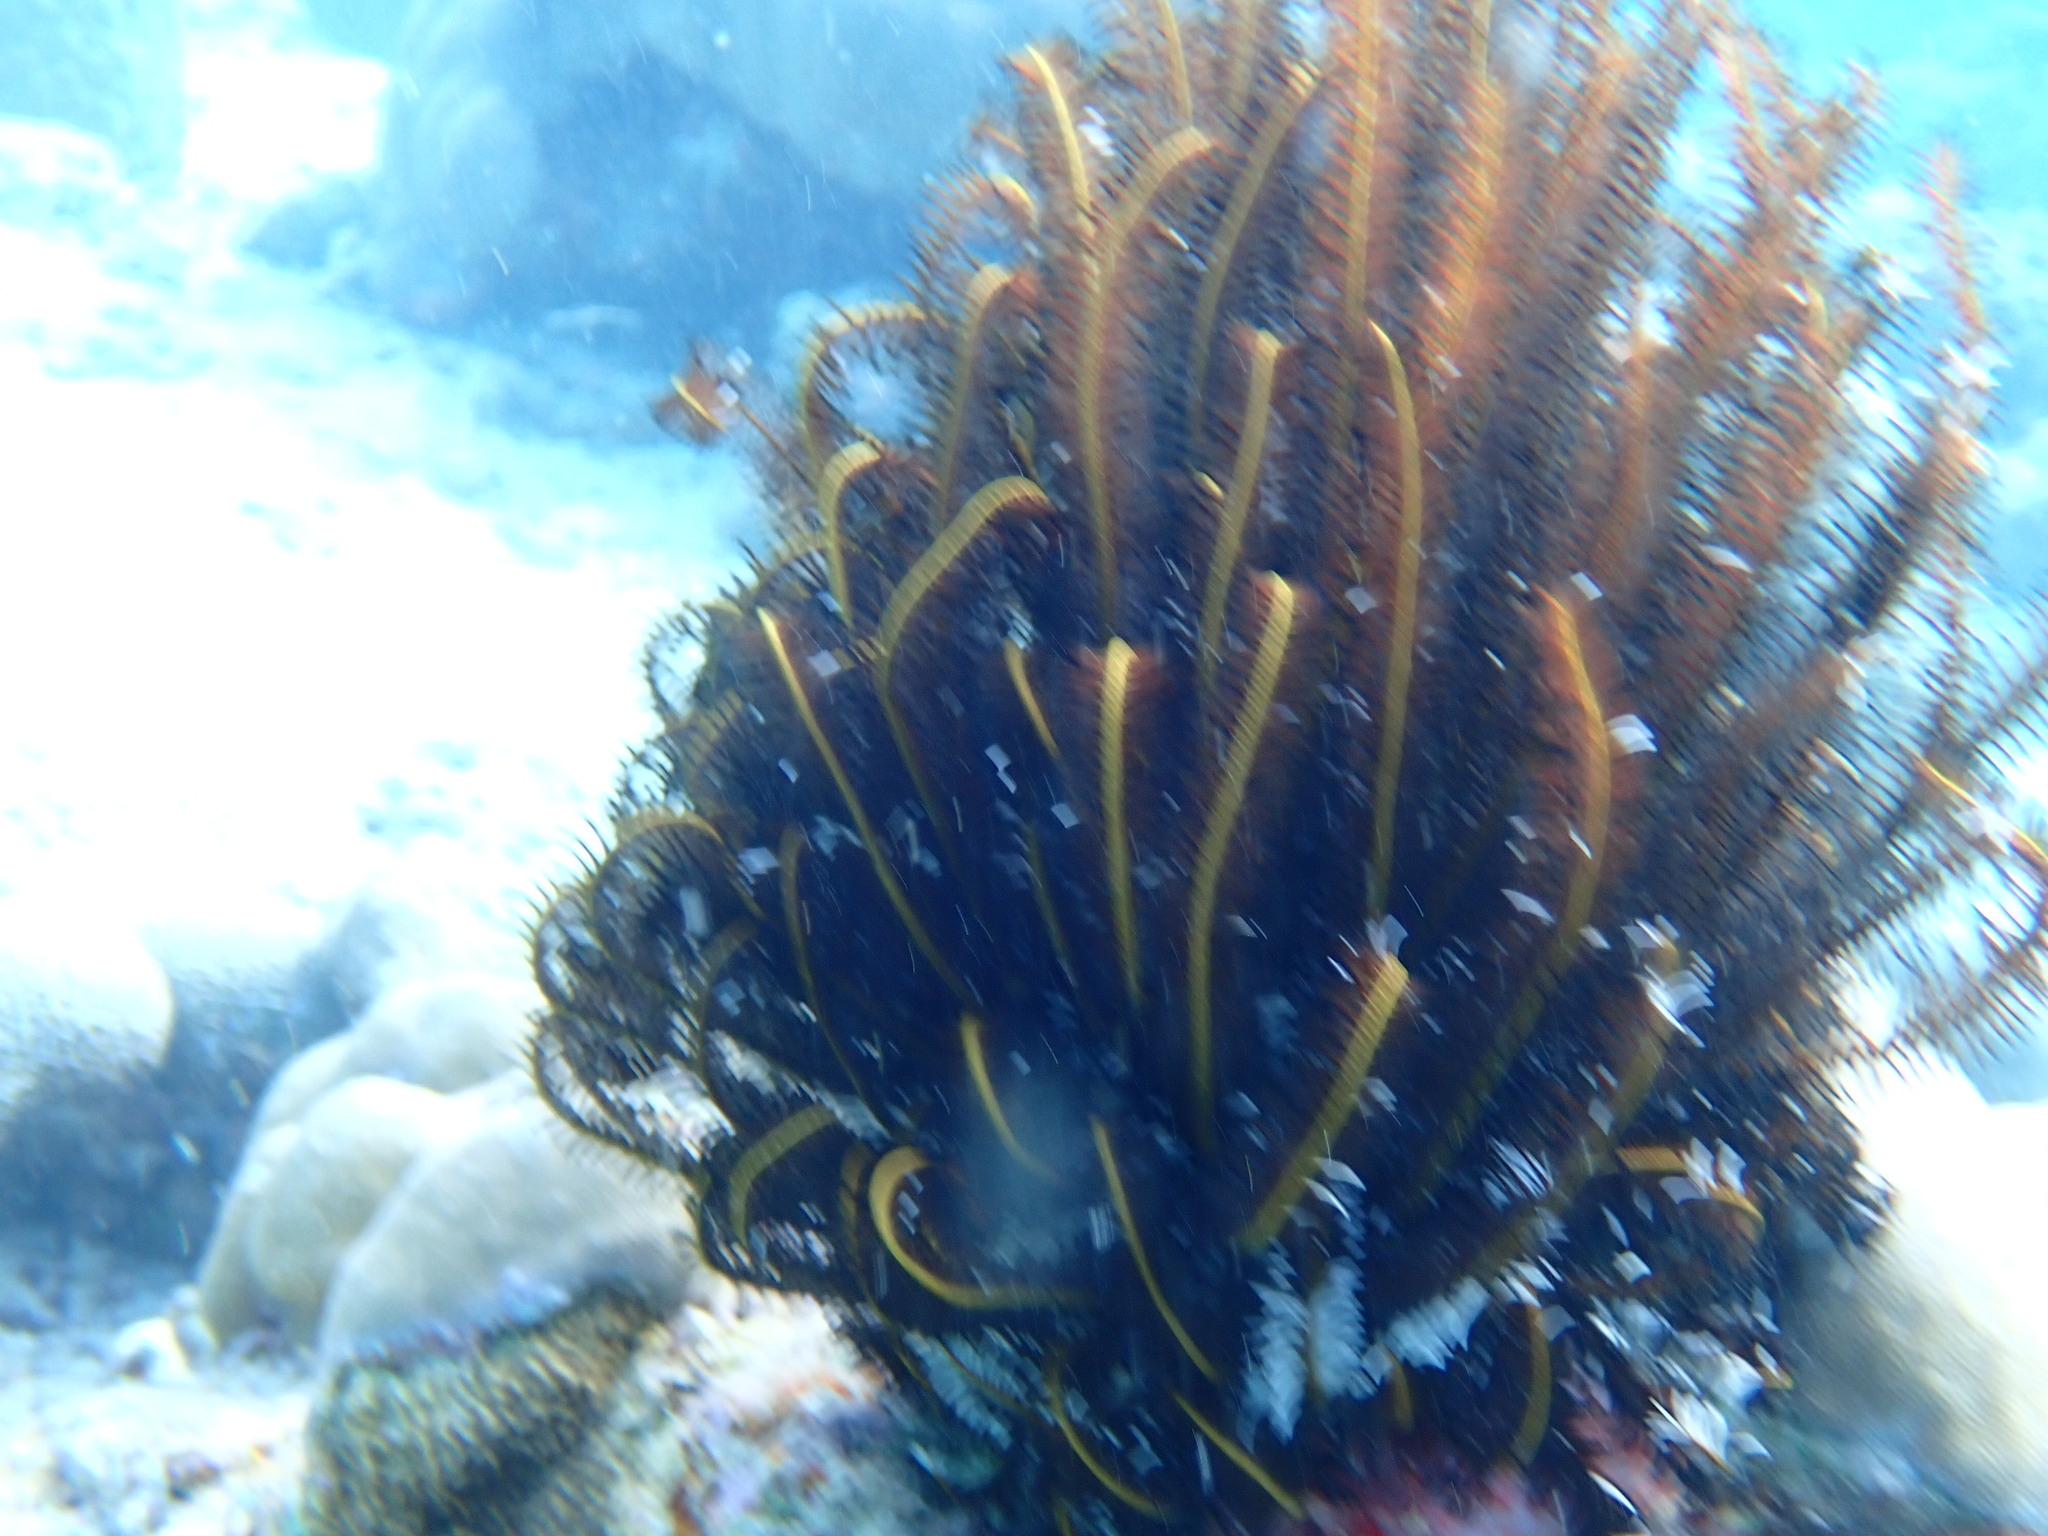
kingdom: Animalia
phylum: Echinodermata
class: Crinoidea
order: Comatulida
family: Comatulidae
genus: Comaster
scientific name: Comaster schlegelii
